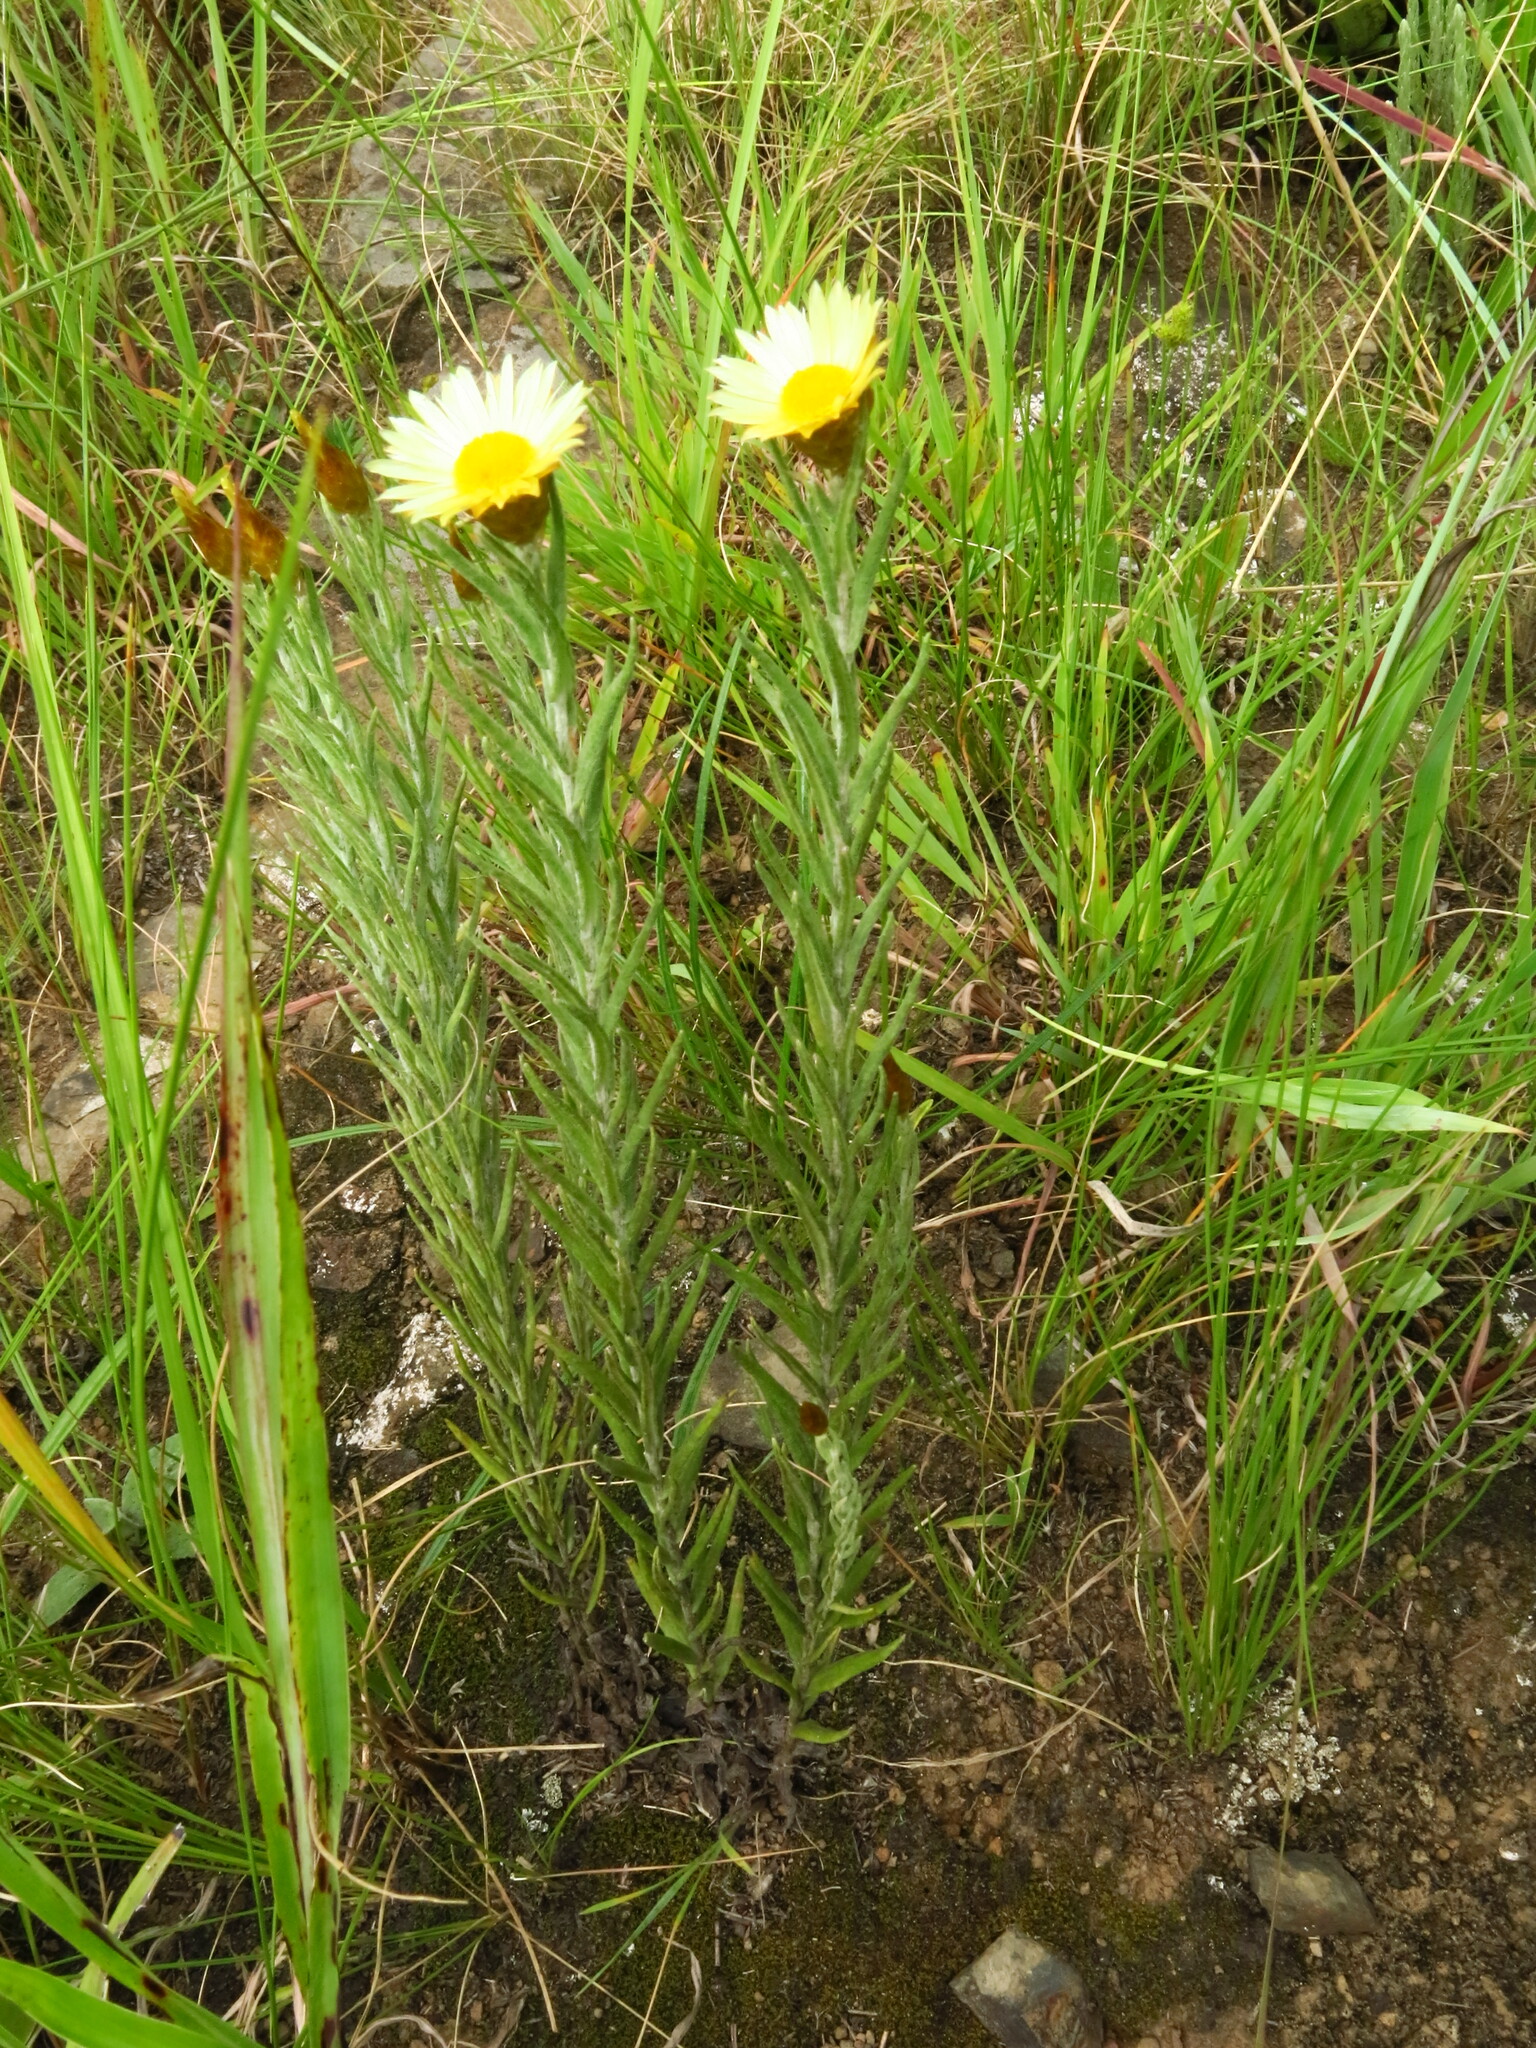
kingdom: Plantae
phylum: Tracheophyta
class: Magnoliopsida
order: Asterales
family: Asteraceae
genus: Helichrysum
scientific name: Helichrysum herbaceum
